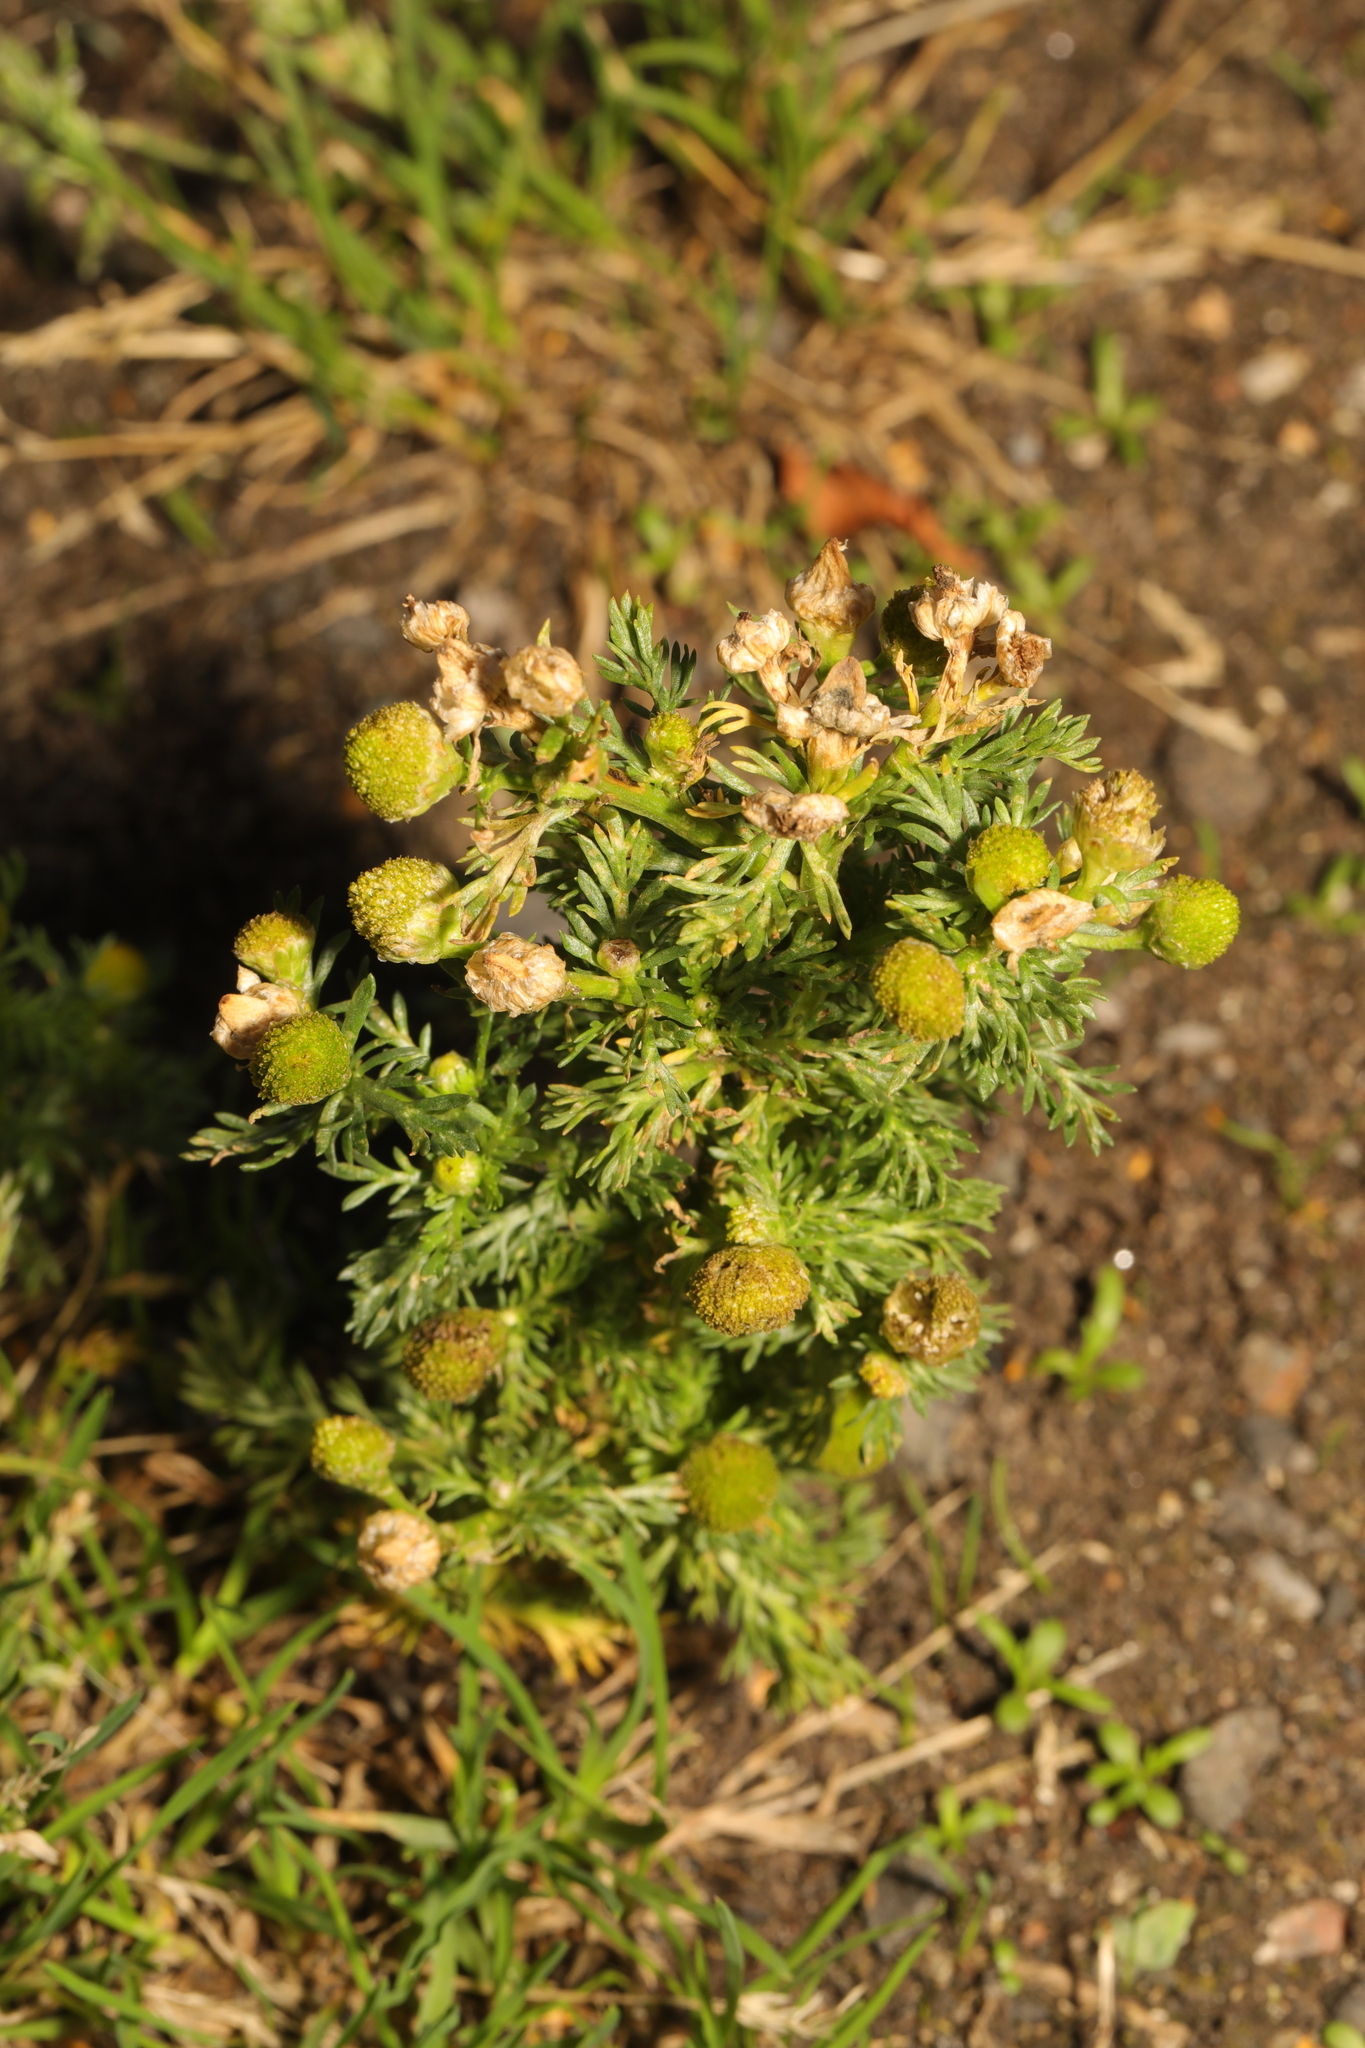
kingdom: Plantae
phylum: Tracheophyta
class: Magnoliopsida
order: Asterales
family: Asteraceae
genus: Matricaria
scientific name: Matricaria discoidea
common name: Disc mayweed
